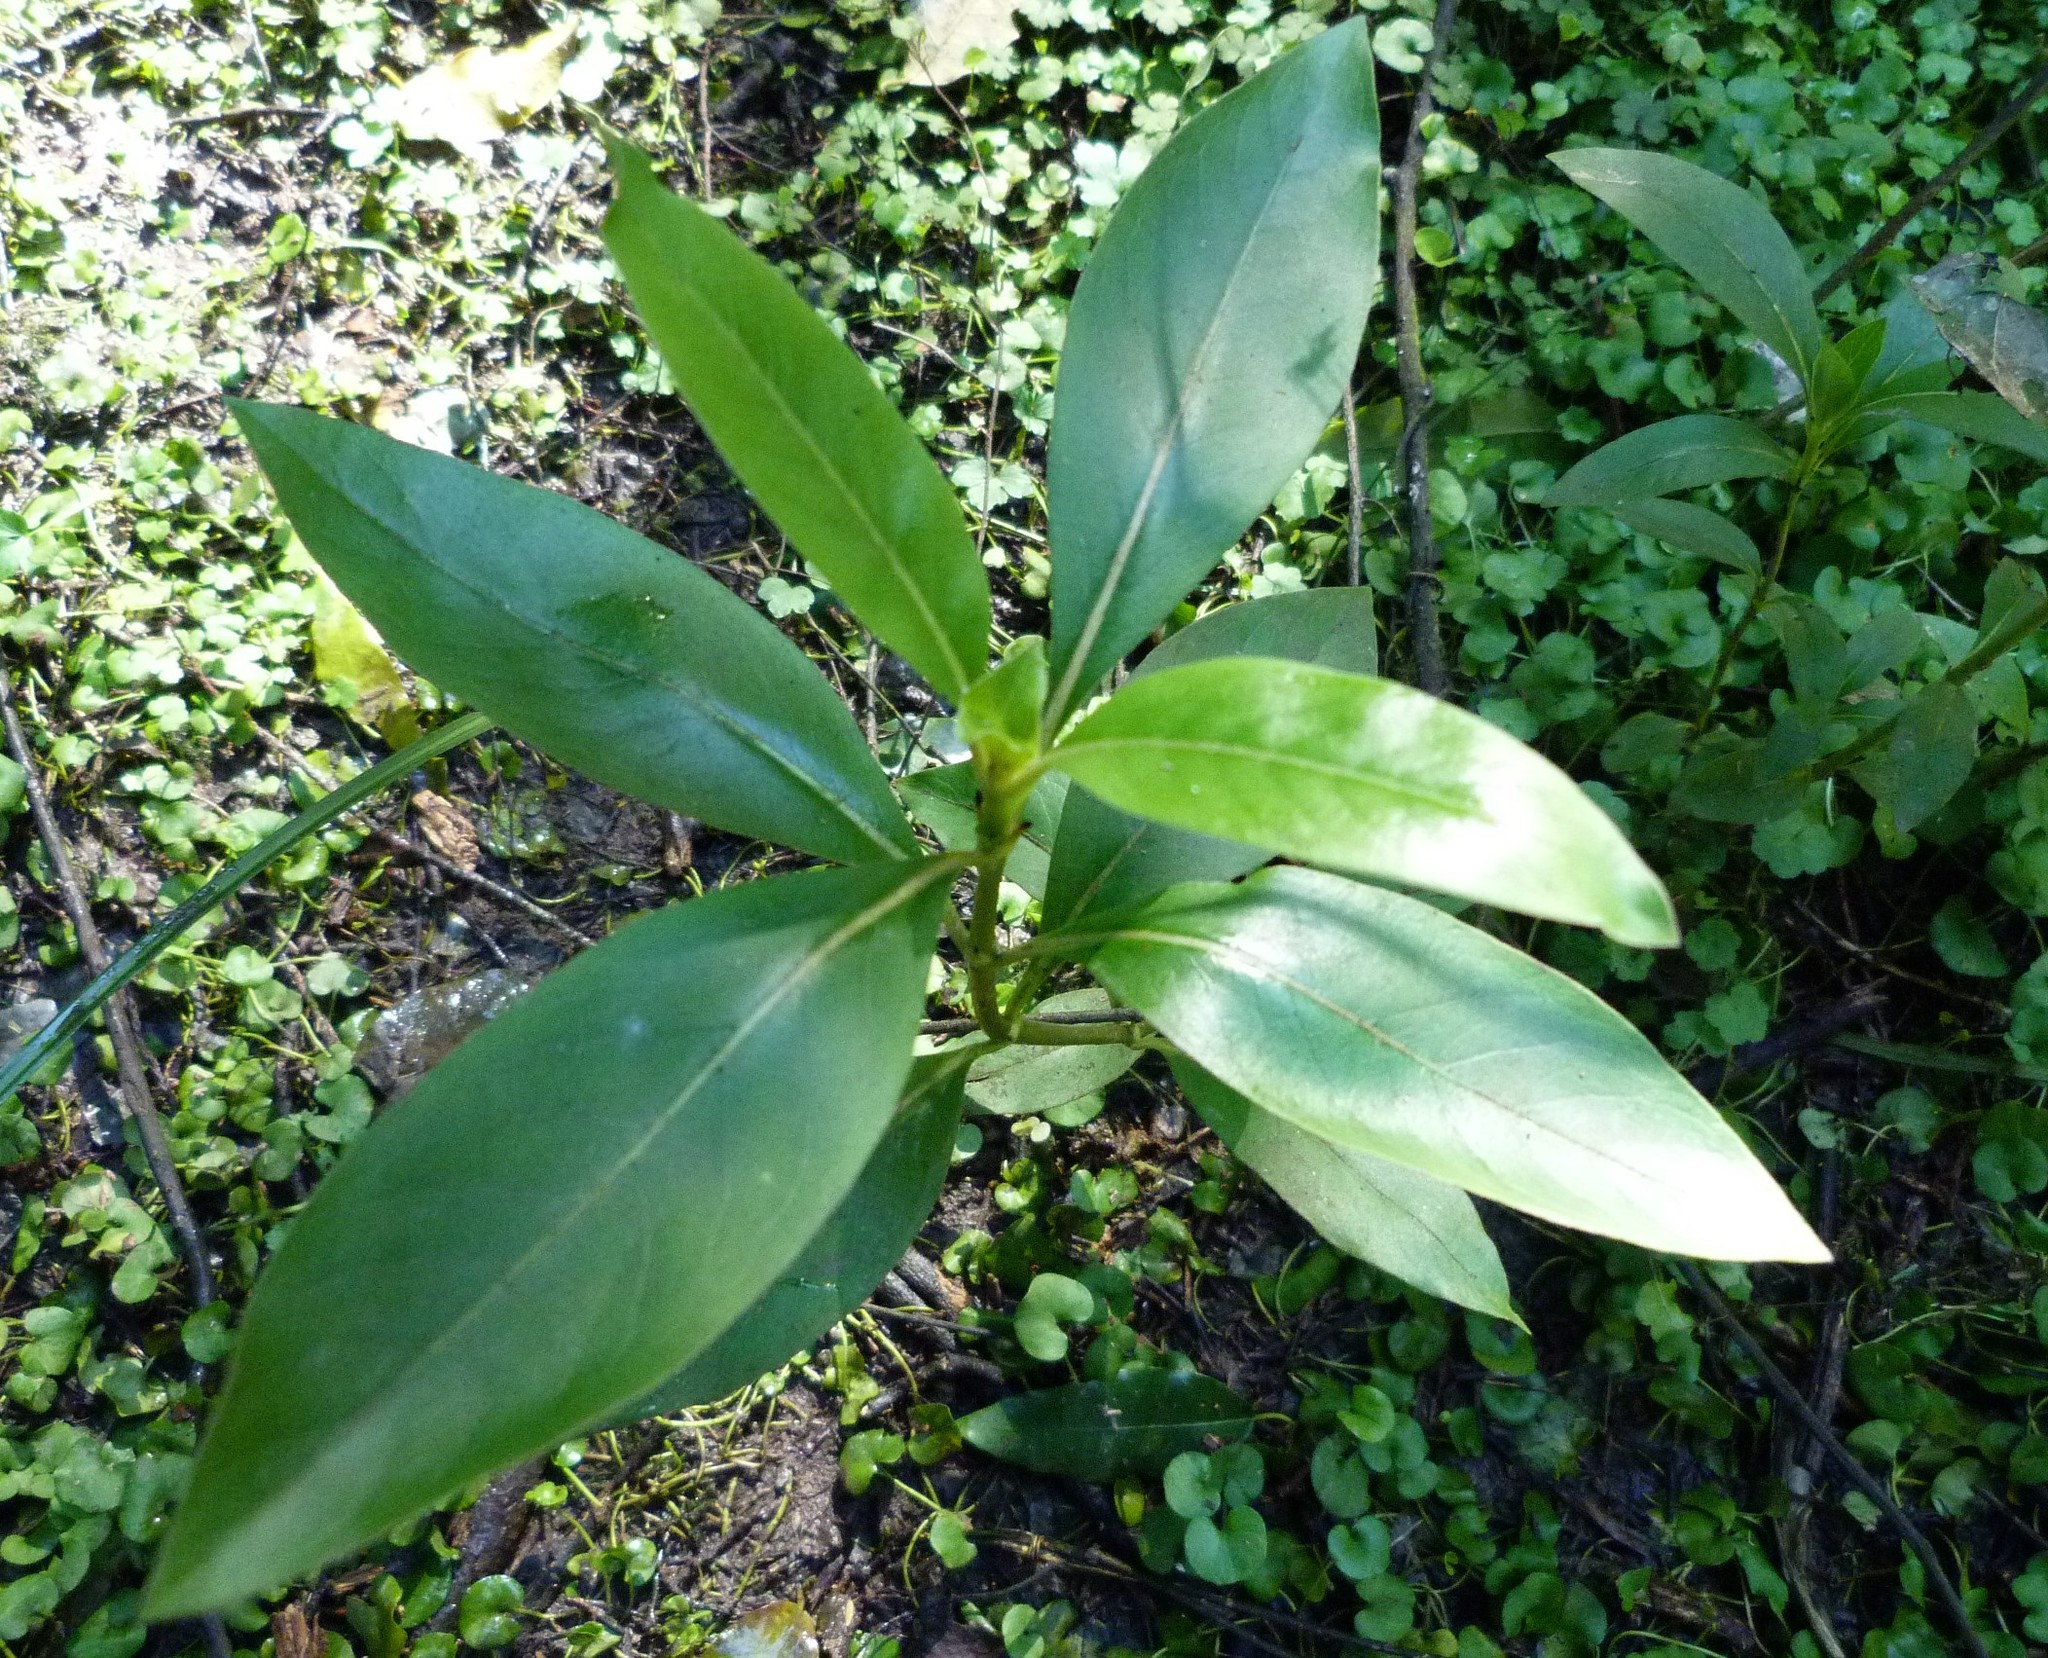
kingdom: Plantae
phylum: Tracheophyta
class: Magnoliopsida
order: Gentianales
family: Rubiaceae
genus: Coprosma
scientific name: Coprosma robusta
